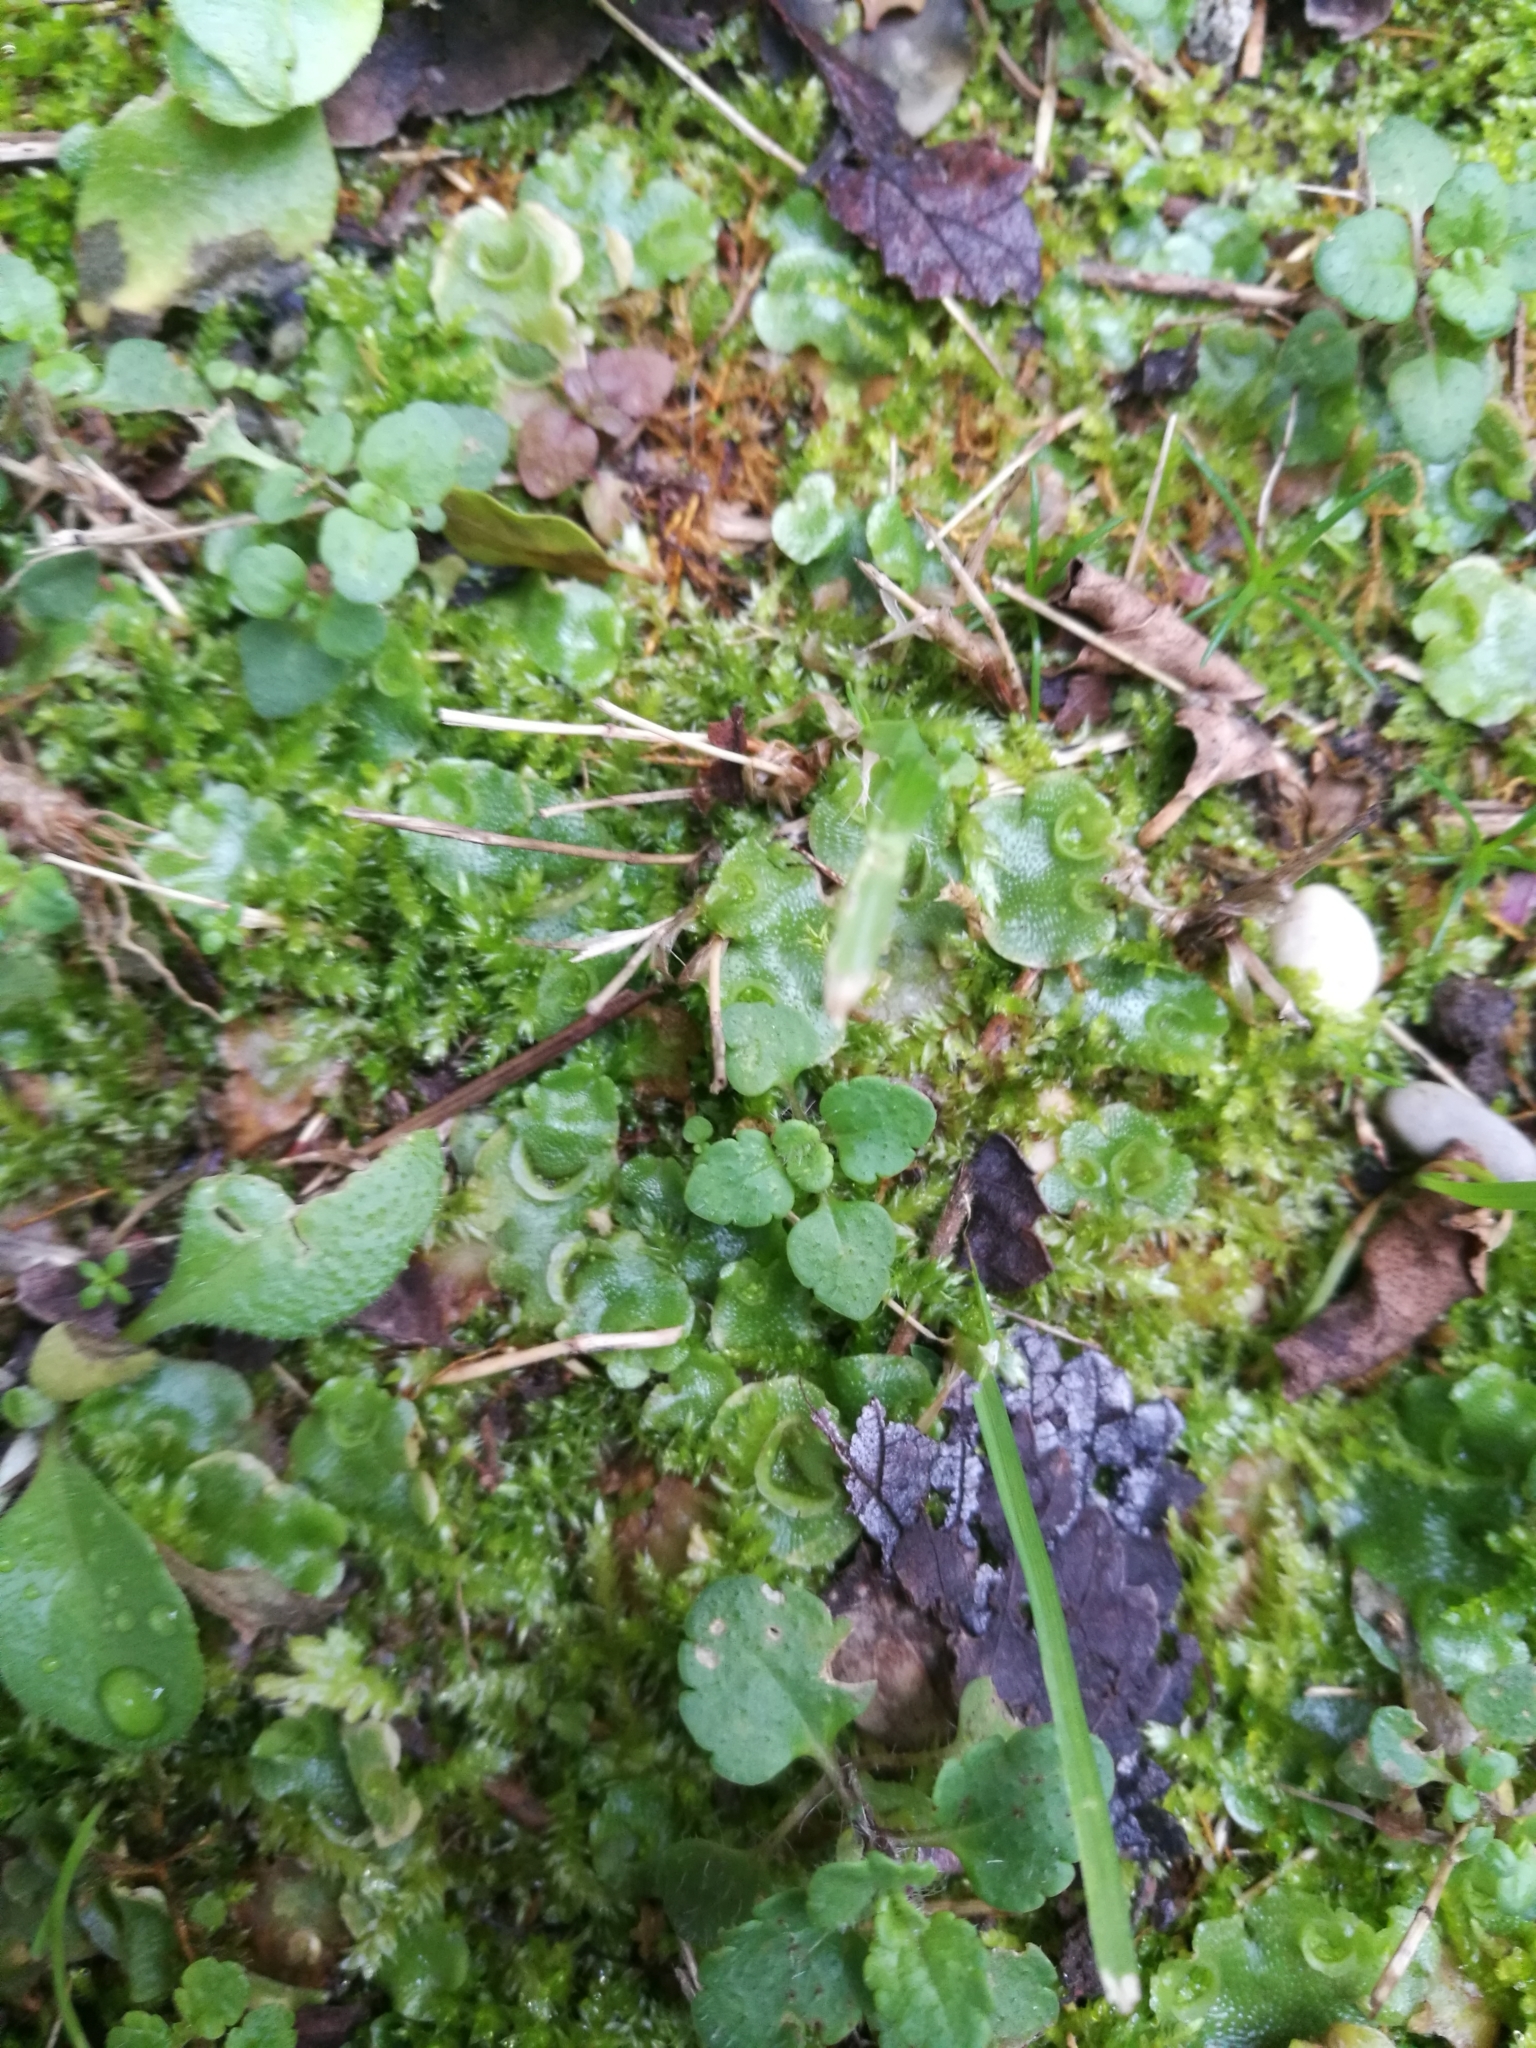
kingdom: Plantae
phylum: Marchantiophyta
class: Marchantiopsida
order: Lunulariales
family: Lunulariaceae
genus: Lunularia
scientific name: Lunularia cruciata
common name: Crescent-cup liverwort
